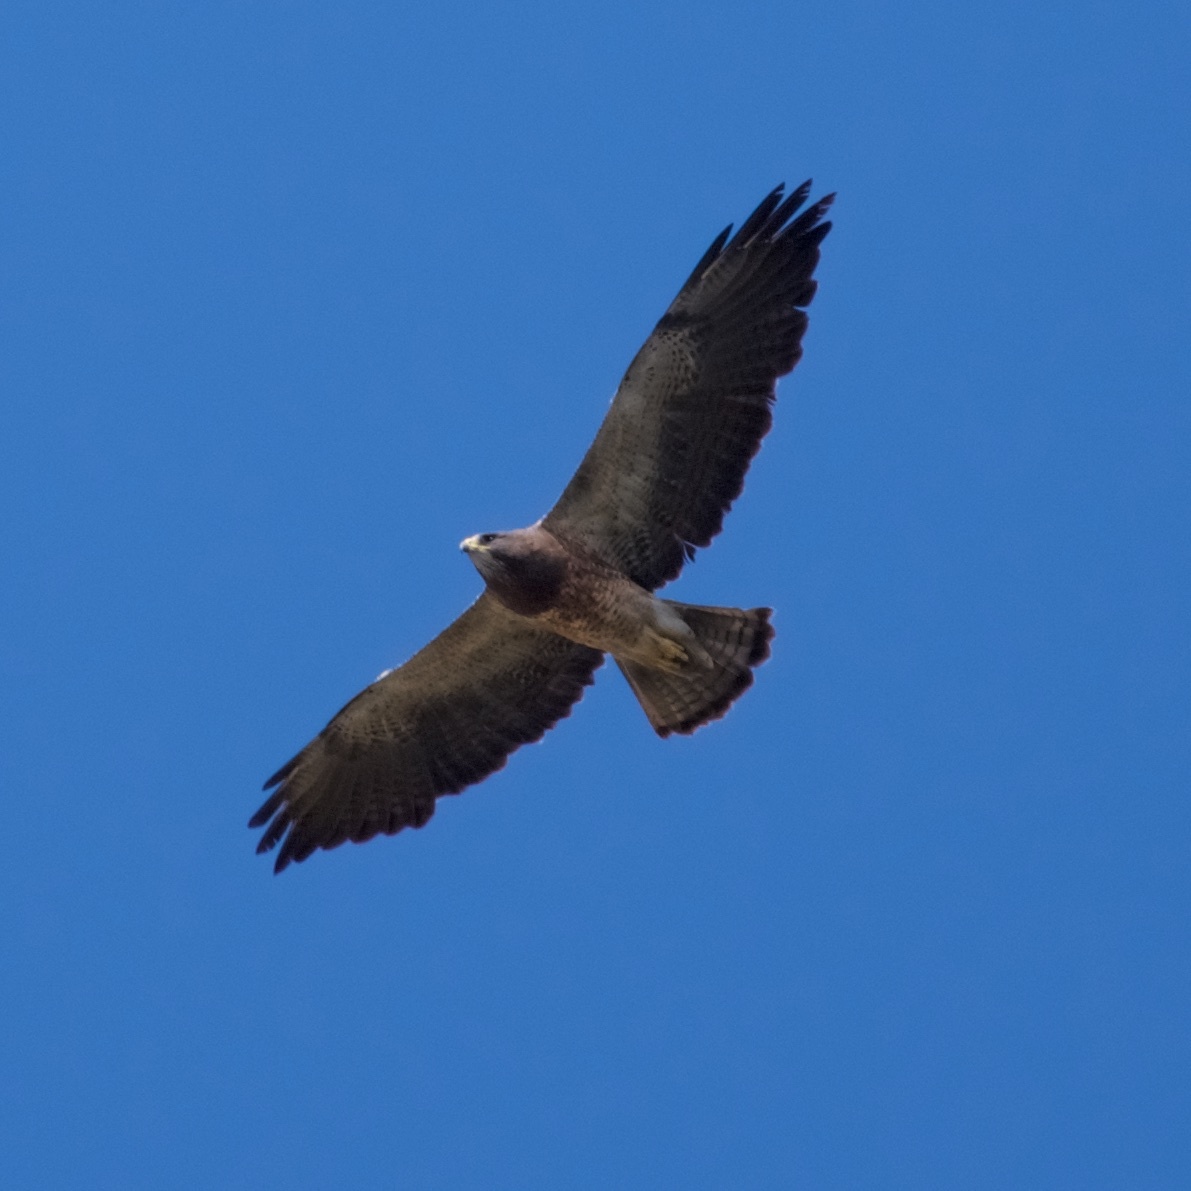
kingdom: Animalia
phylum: Chordata
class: Aves
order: Accipitriformes
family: Accipitridae
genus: Buteo
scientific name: Buteo swainsoni
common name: Swainson's hawk
